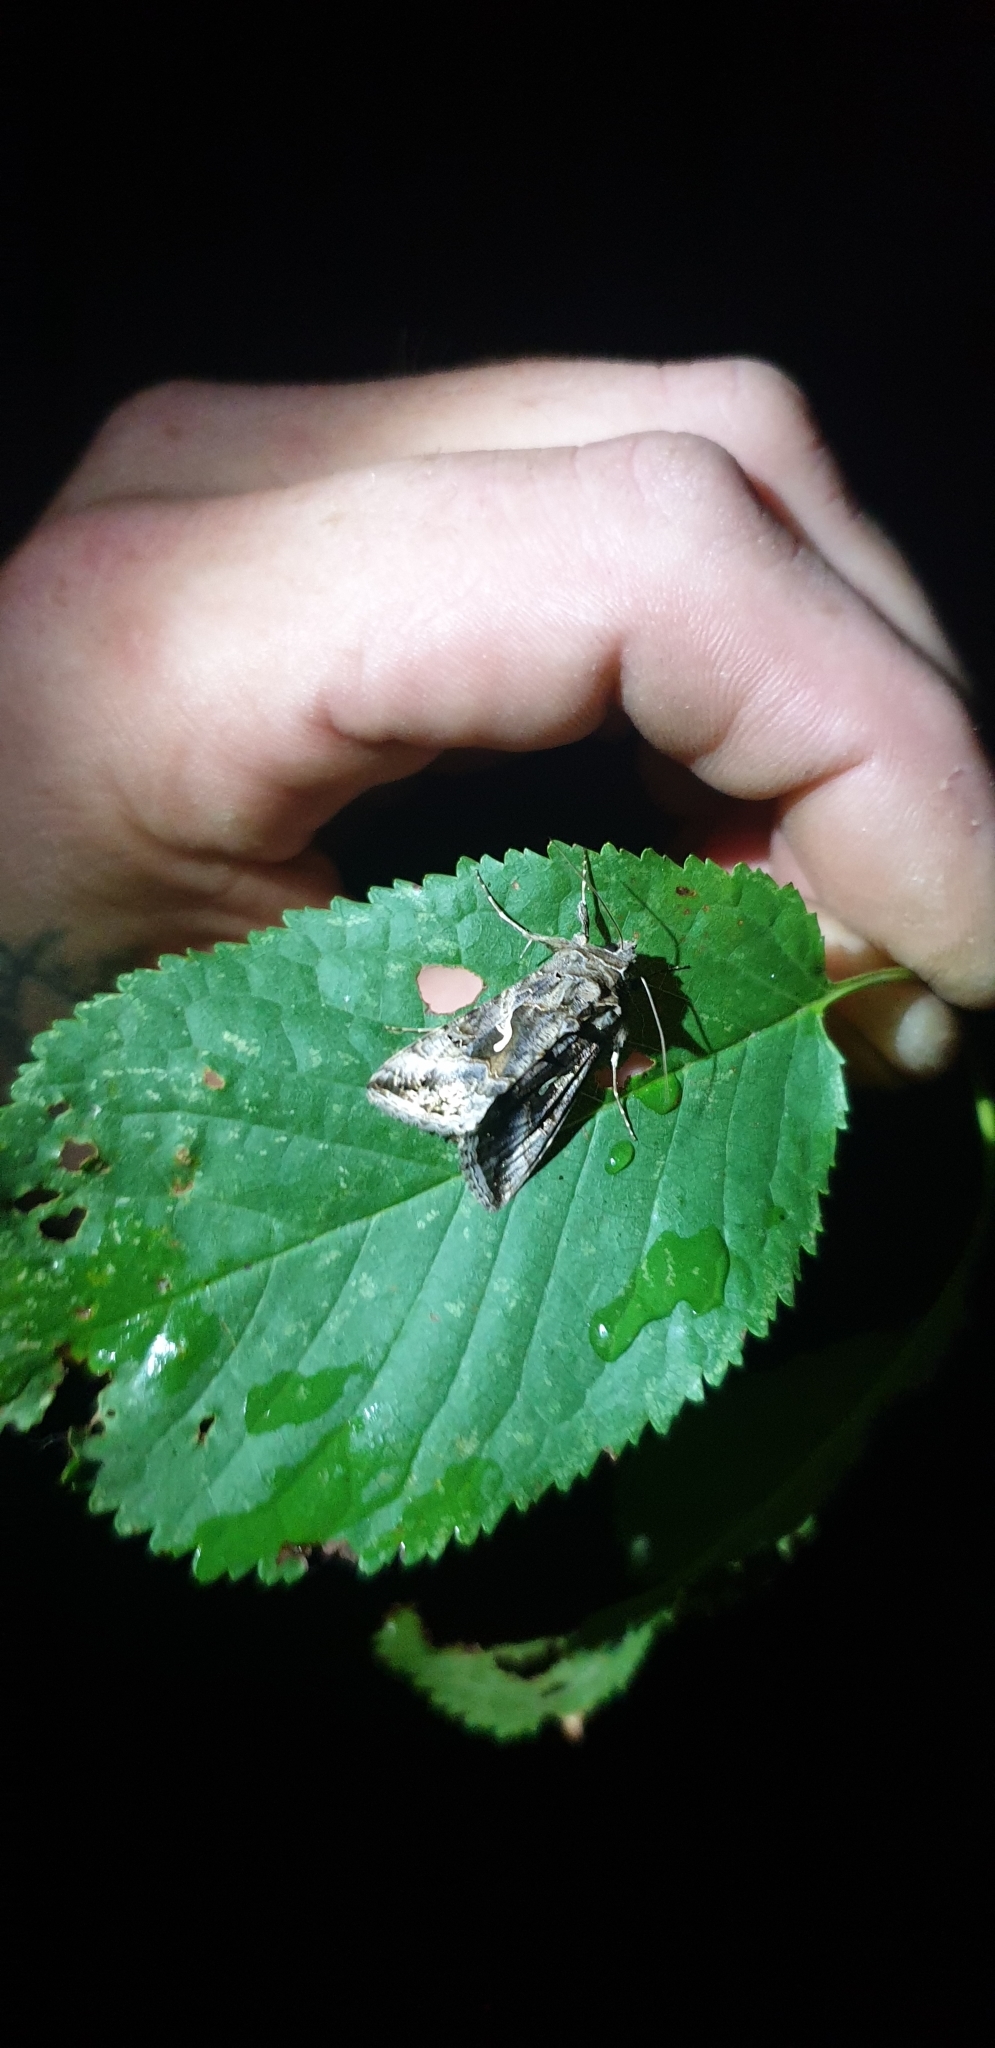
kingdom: Animalia
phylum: Arthropoda
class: Insecta
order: Lepidoptera
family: Noctuidae
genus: Autographa
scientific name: Autographa gamma
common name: Silver y
